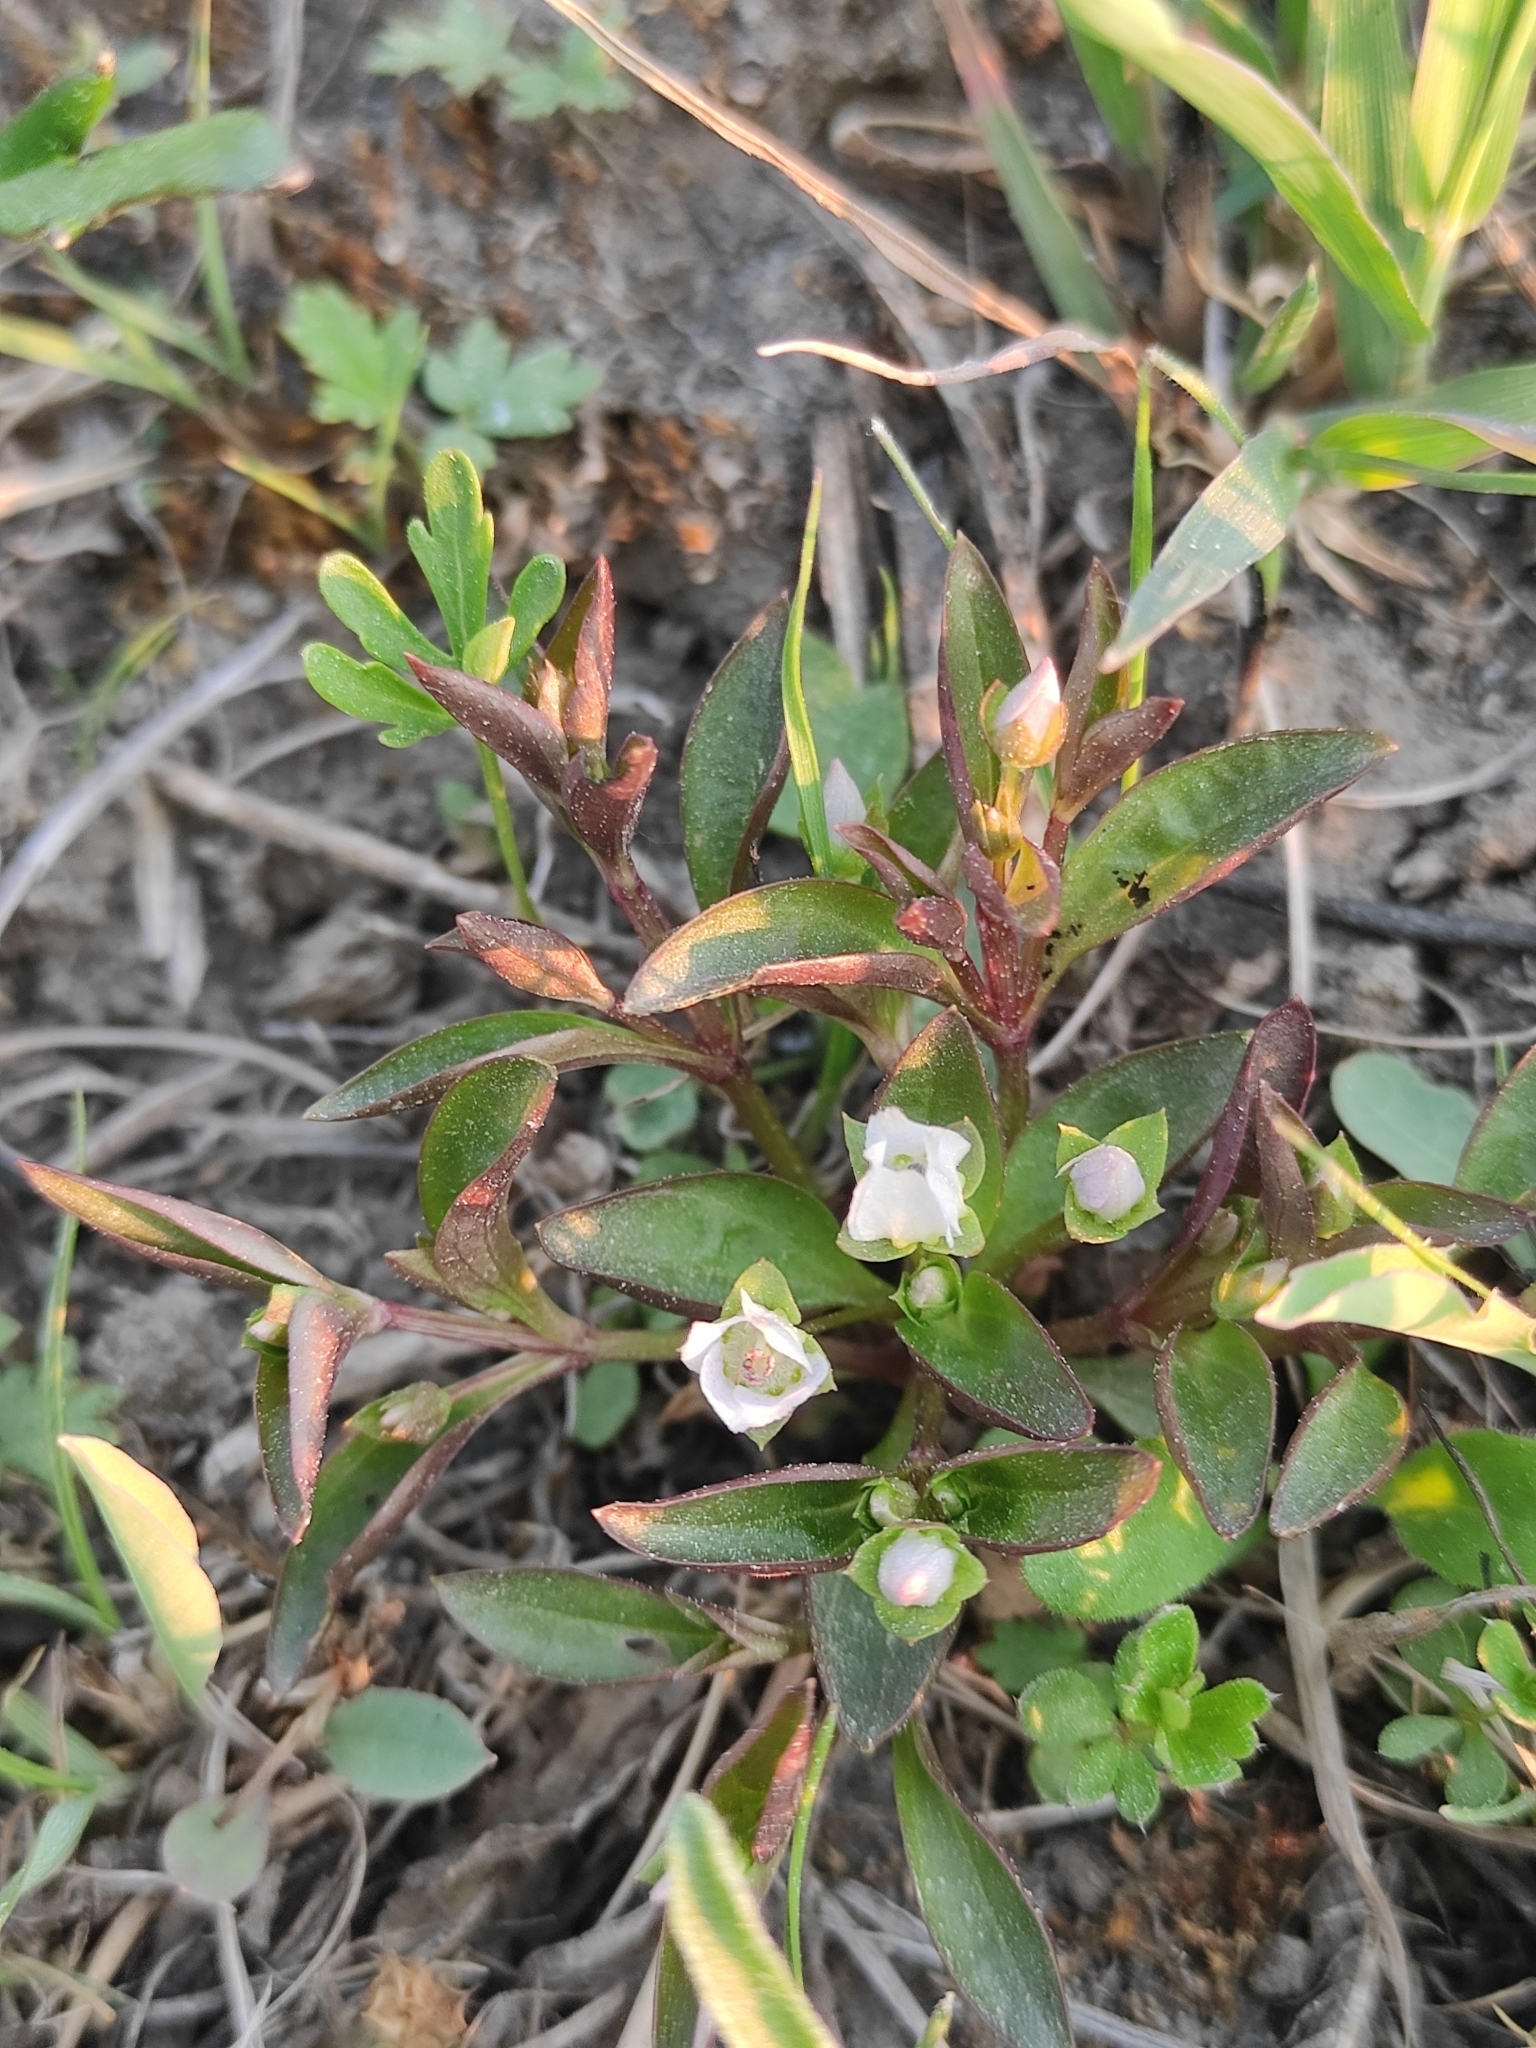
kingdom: Plantae
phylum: Tracheophyta
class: Magnoliopsida
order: Gentianales
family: Gentianaceae
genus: Swertia
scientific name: Swertia dichotoma
